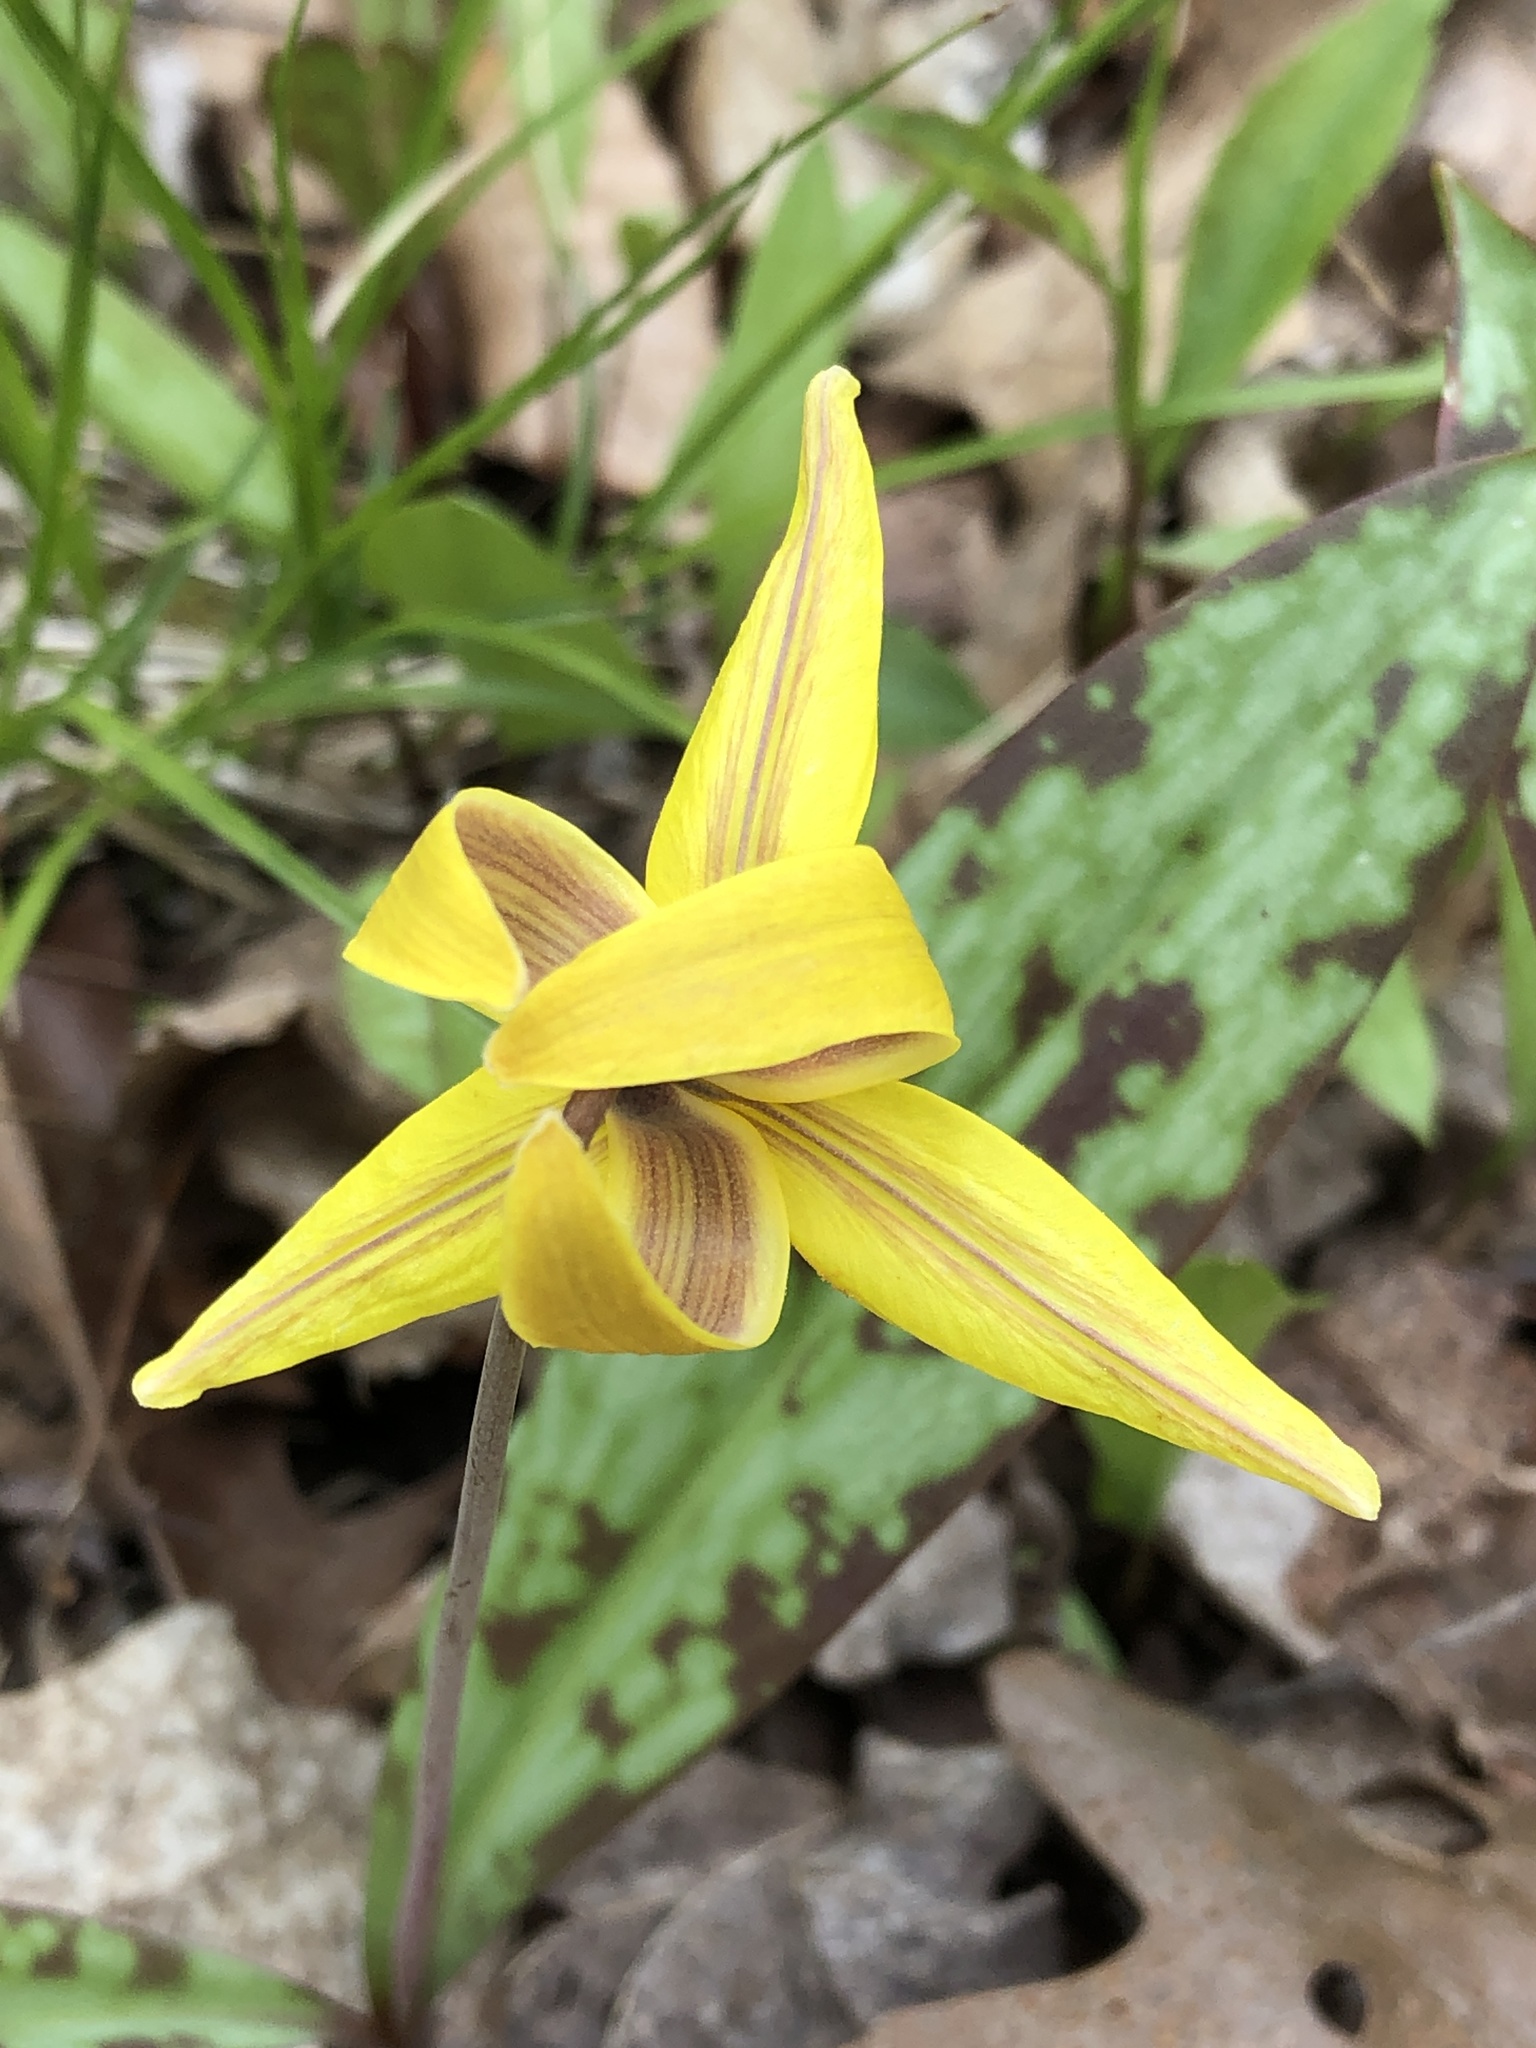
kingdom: Plantae
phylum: Tracheophyta
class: Liliopsida
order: Liliales
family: Liliaceae
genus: Erythronium
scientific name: Erythronium americanum
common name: Yellow adder's-tongue
